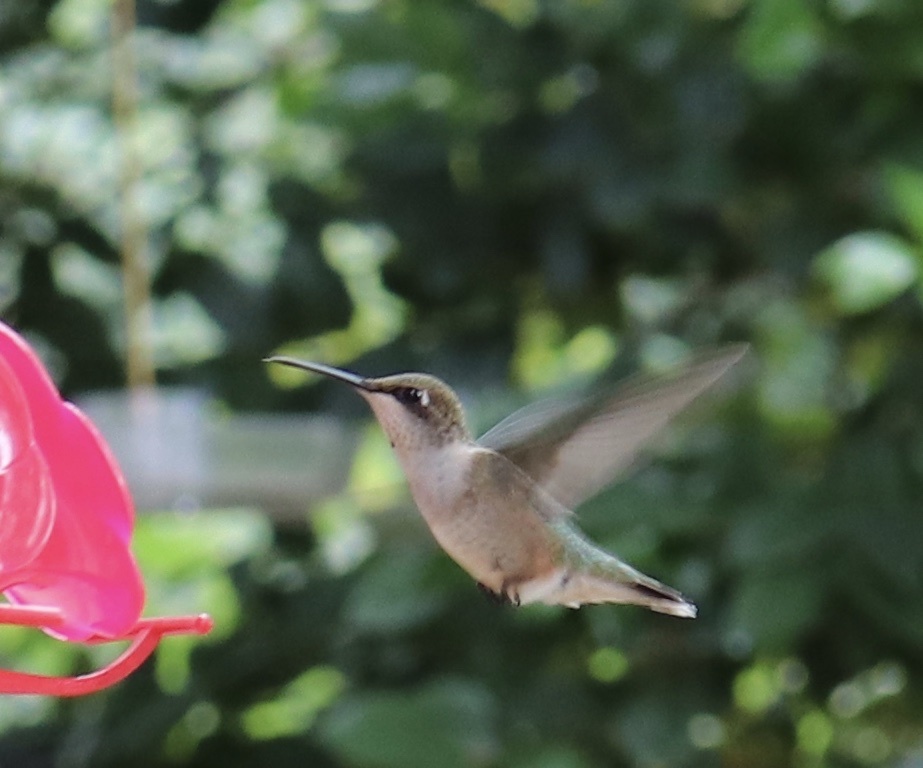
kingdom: Animalia
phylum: Chordata
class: Aves
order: Apodiformes
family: Trochilidae
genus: Archilochus
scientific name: Archilochus colubris
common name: Ruby-throated hummingbird
